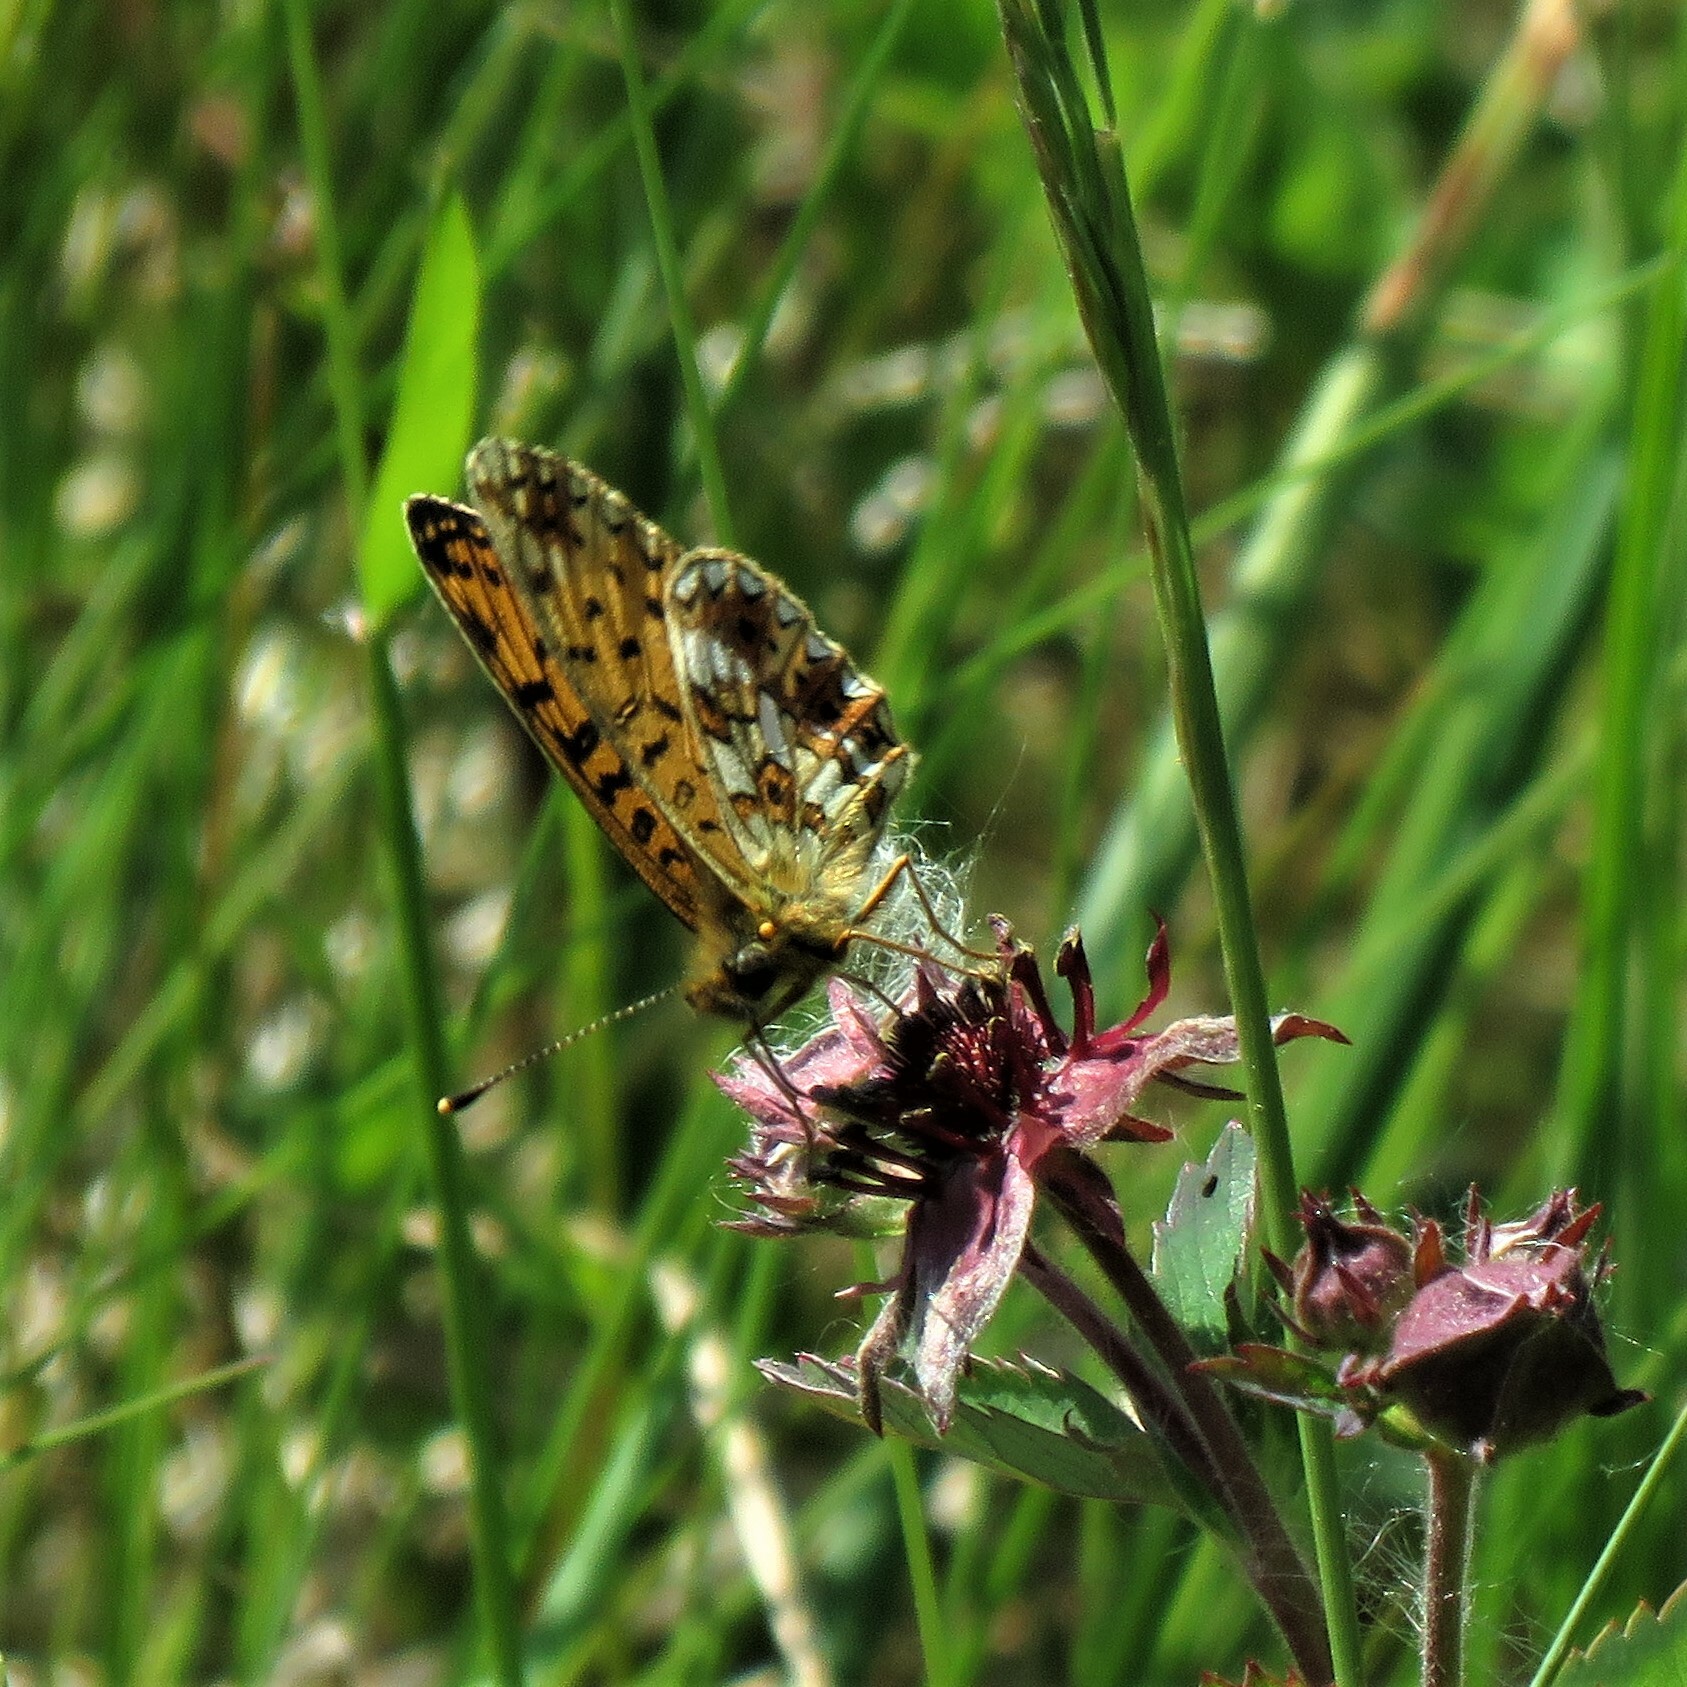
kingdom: Animalia
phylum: Arthropoda
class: Insecta
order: Lepidoptera
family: Nymphalidae
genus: Boloria
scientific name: Boloria selene
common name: Small pearl-bordered fritillary
